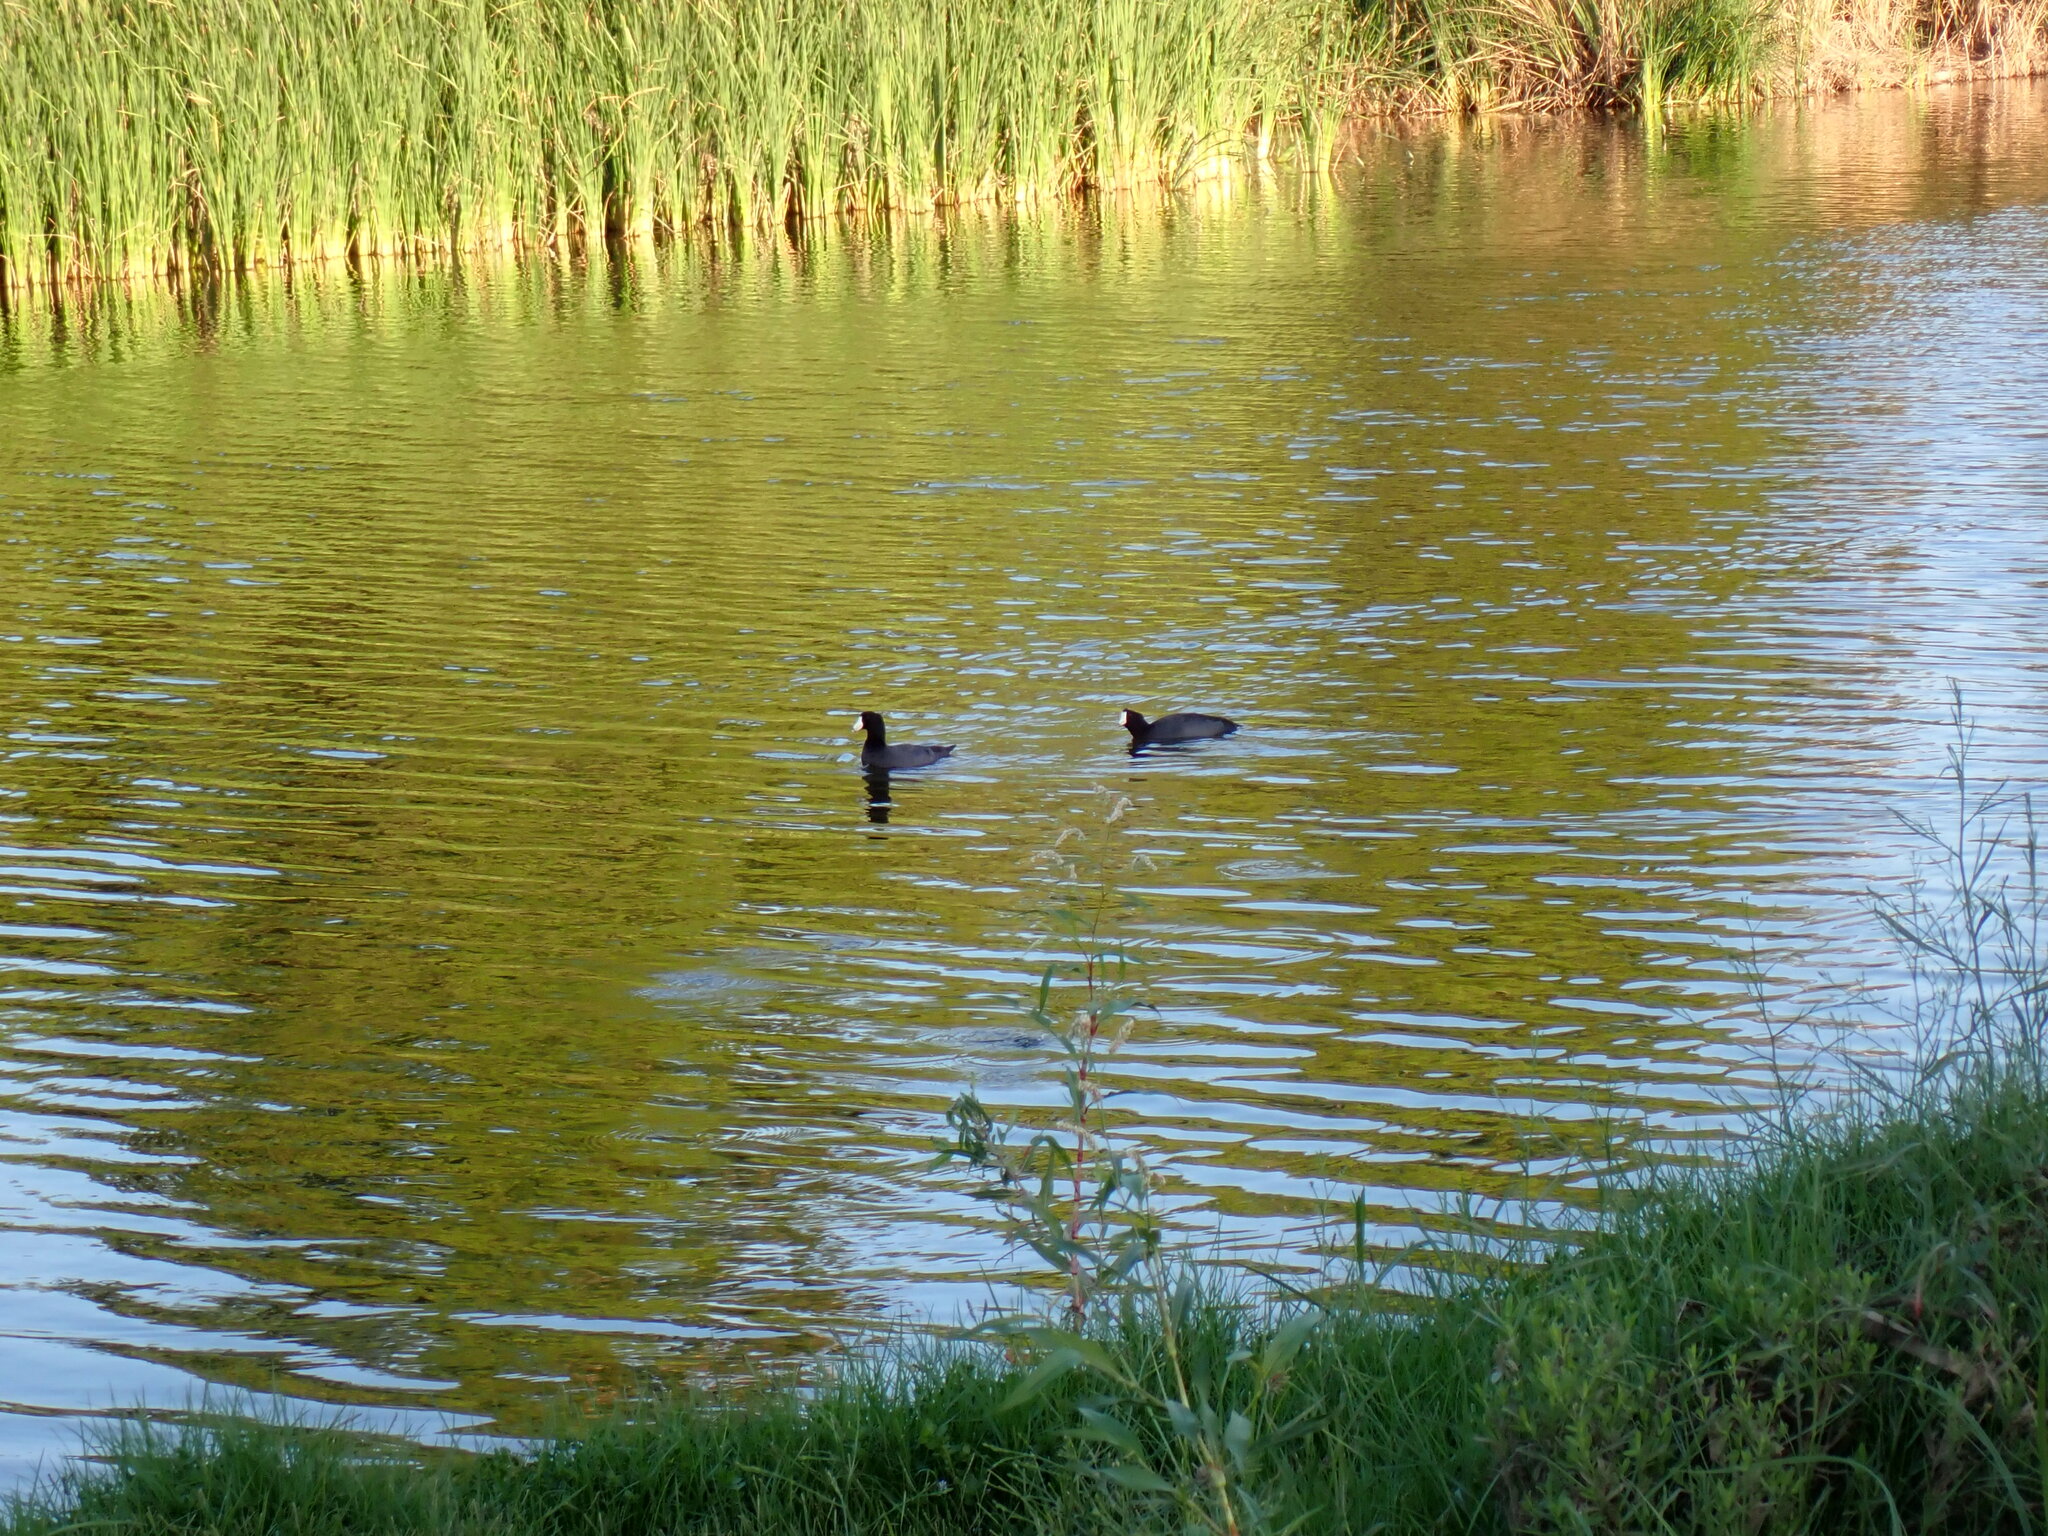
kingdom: Animalia
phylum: Chordata
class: Aves
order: Gruiformes
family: Rallidae
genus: Fulica
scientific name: Fulica americana
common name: American coot
